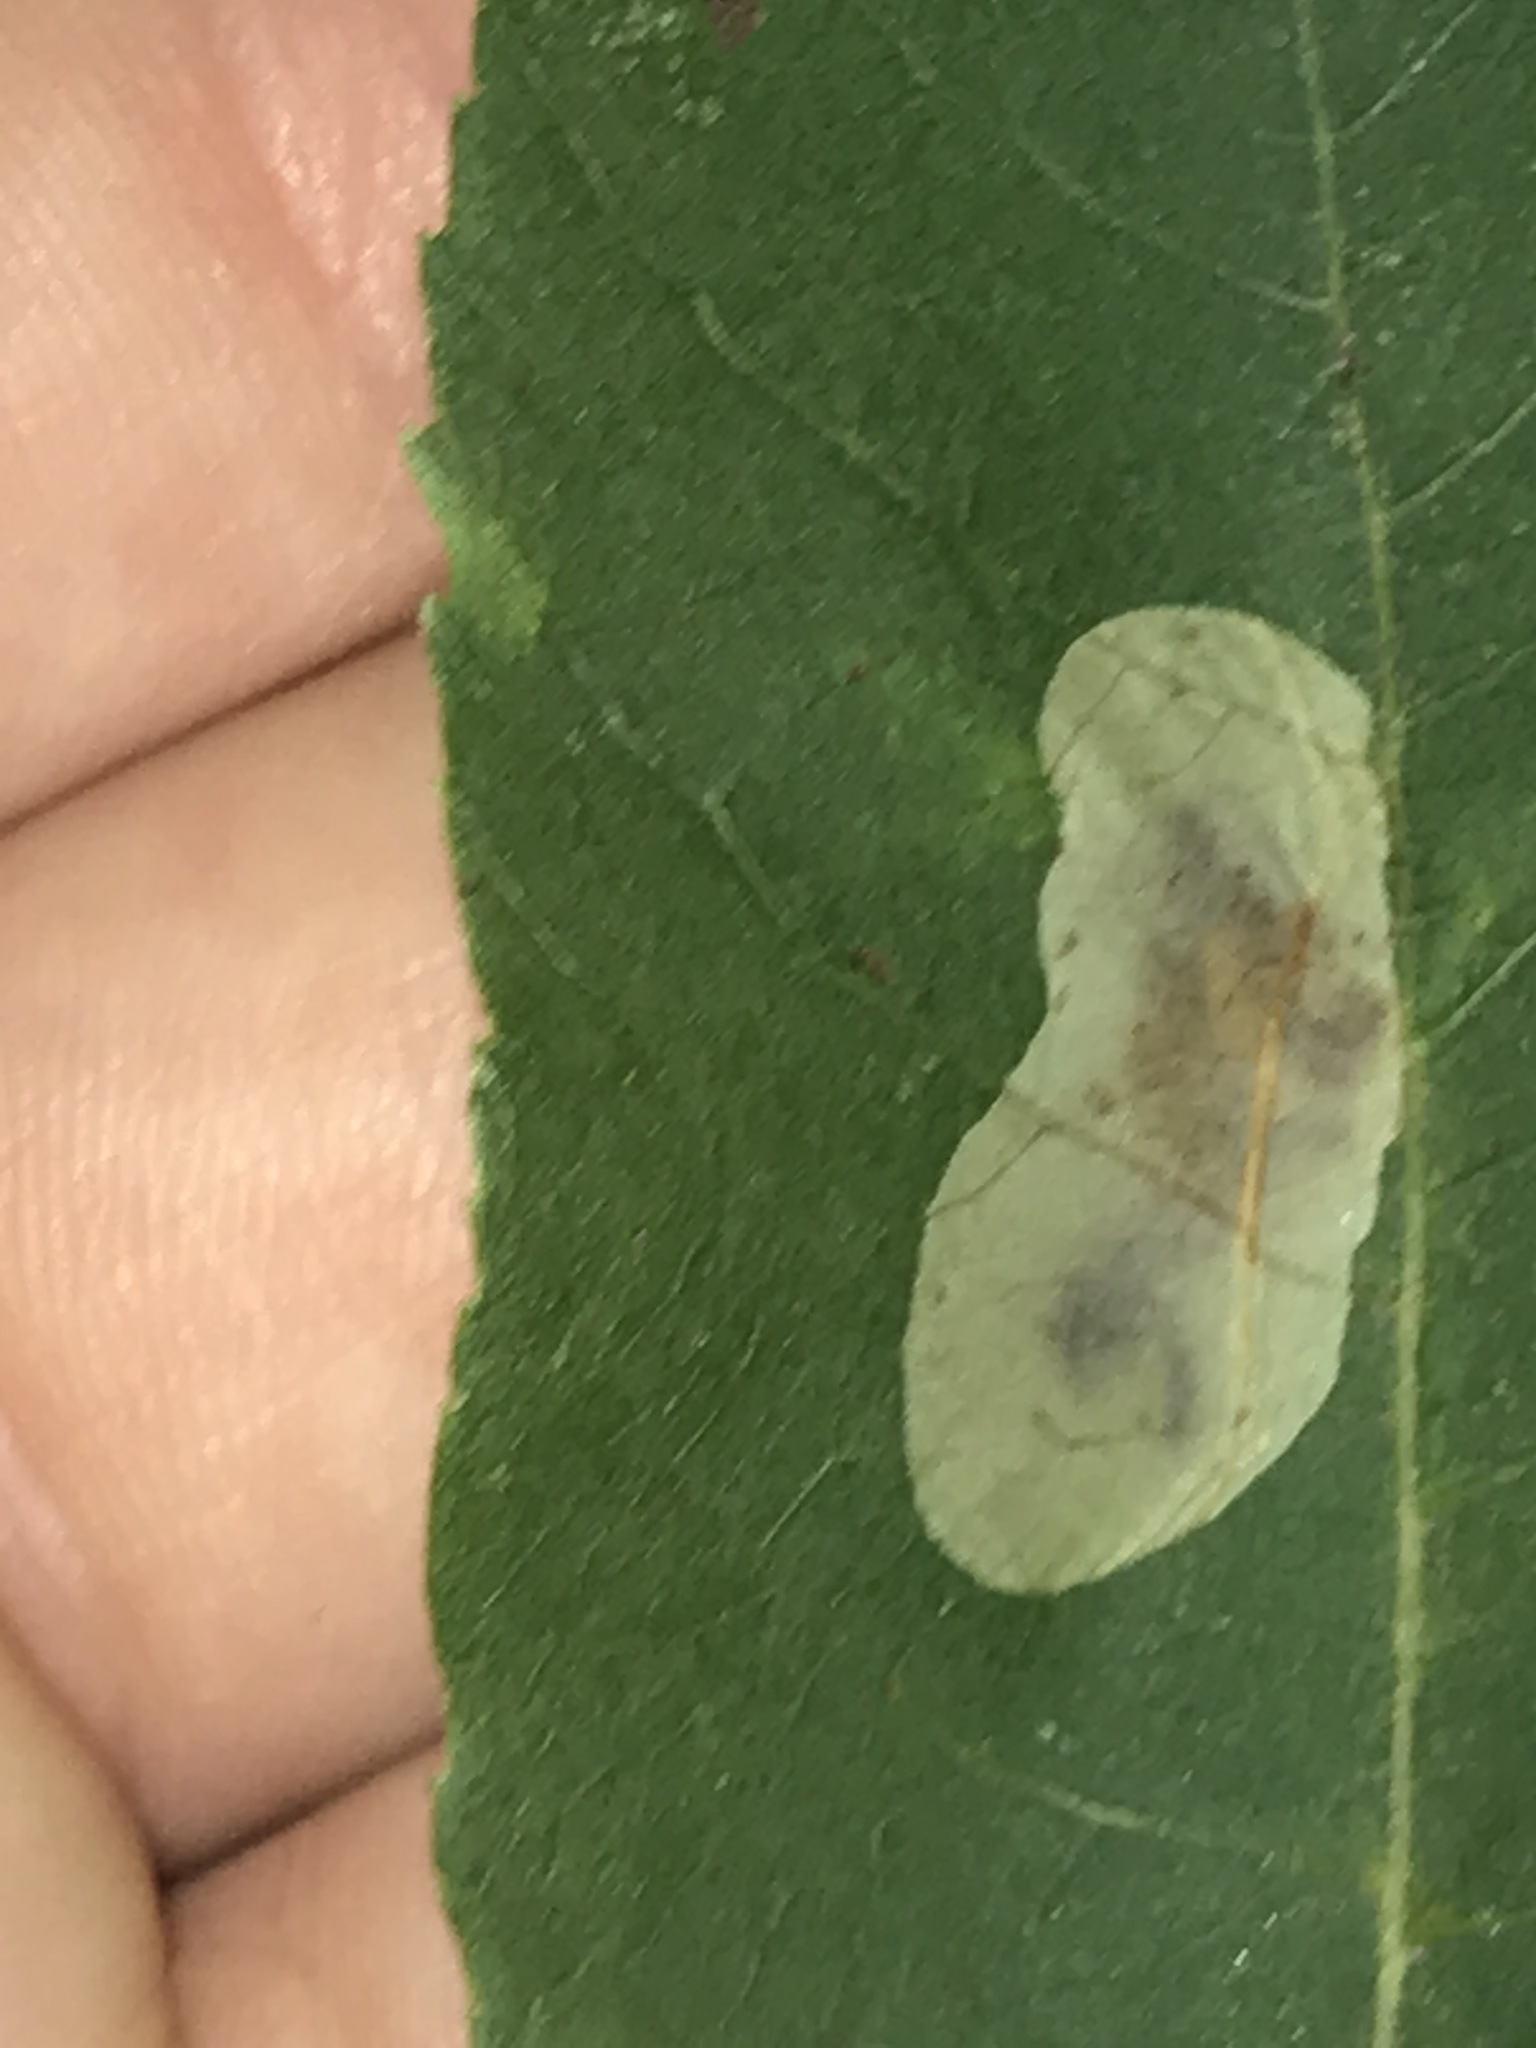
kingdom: Animalia
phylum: Arthropoda
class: Insecta
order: Lepidoptera
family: Gracillariidae
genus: Cameraria
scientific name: Cameraria caryaefoliella
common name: Pecan leafminer moth
